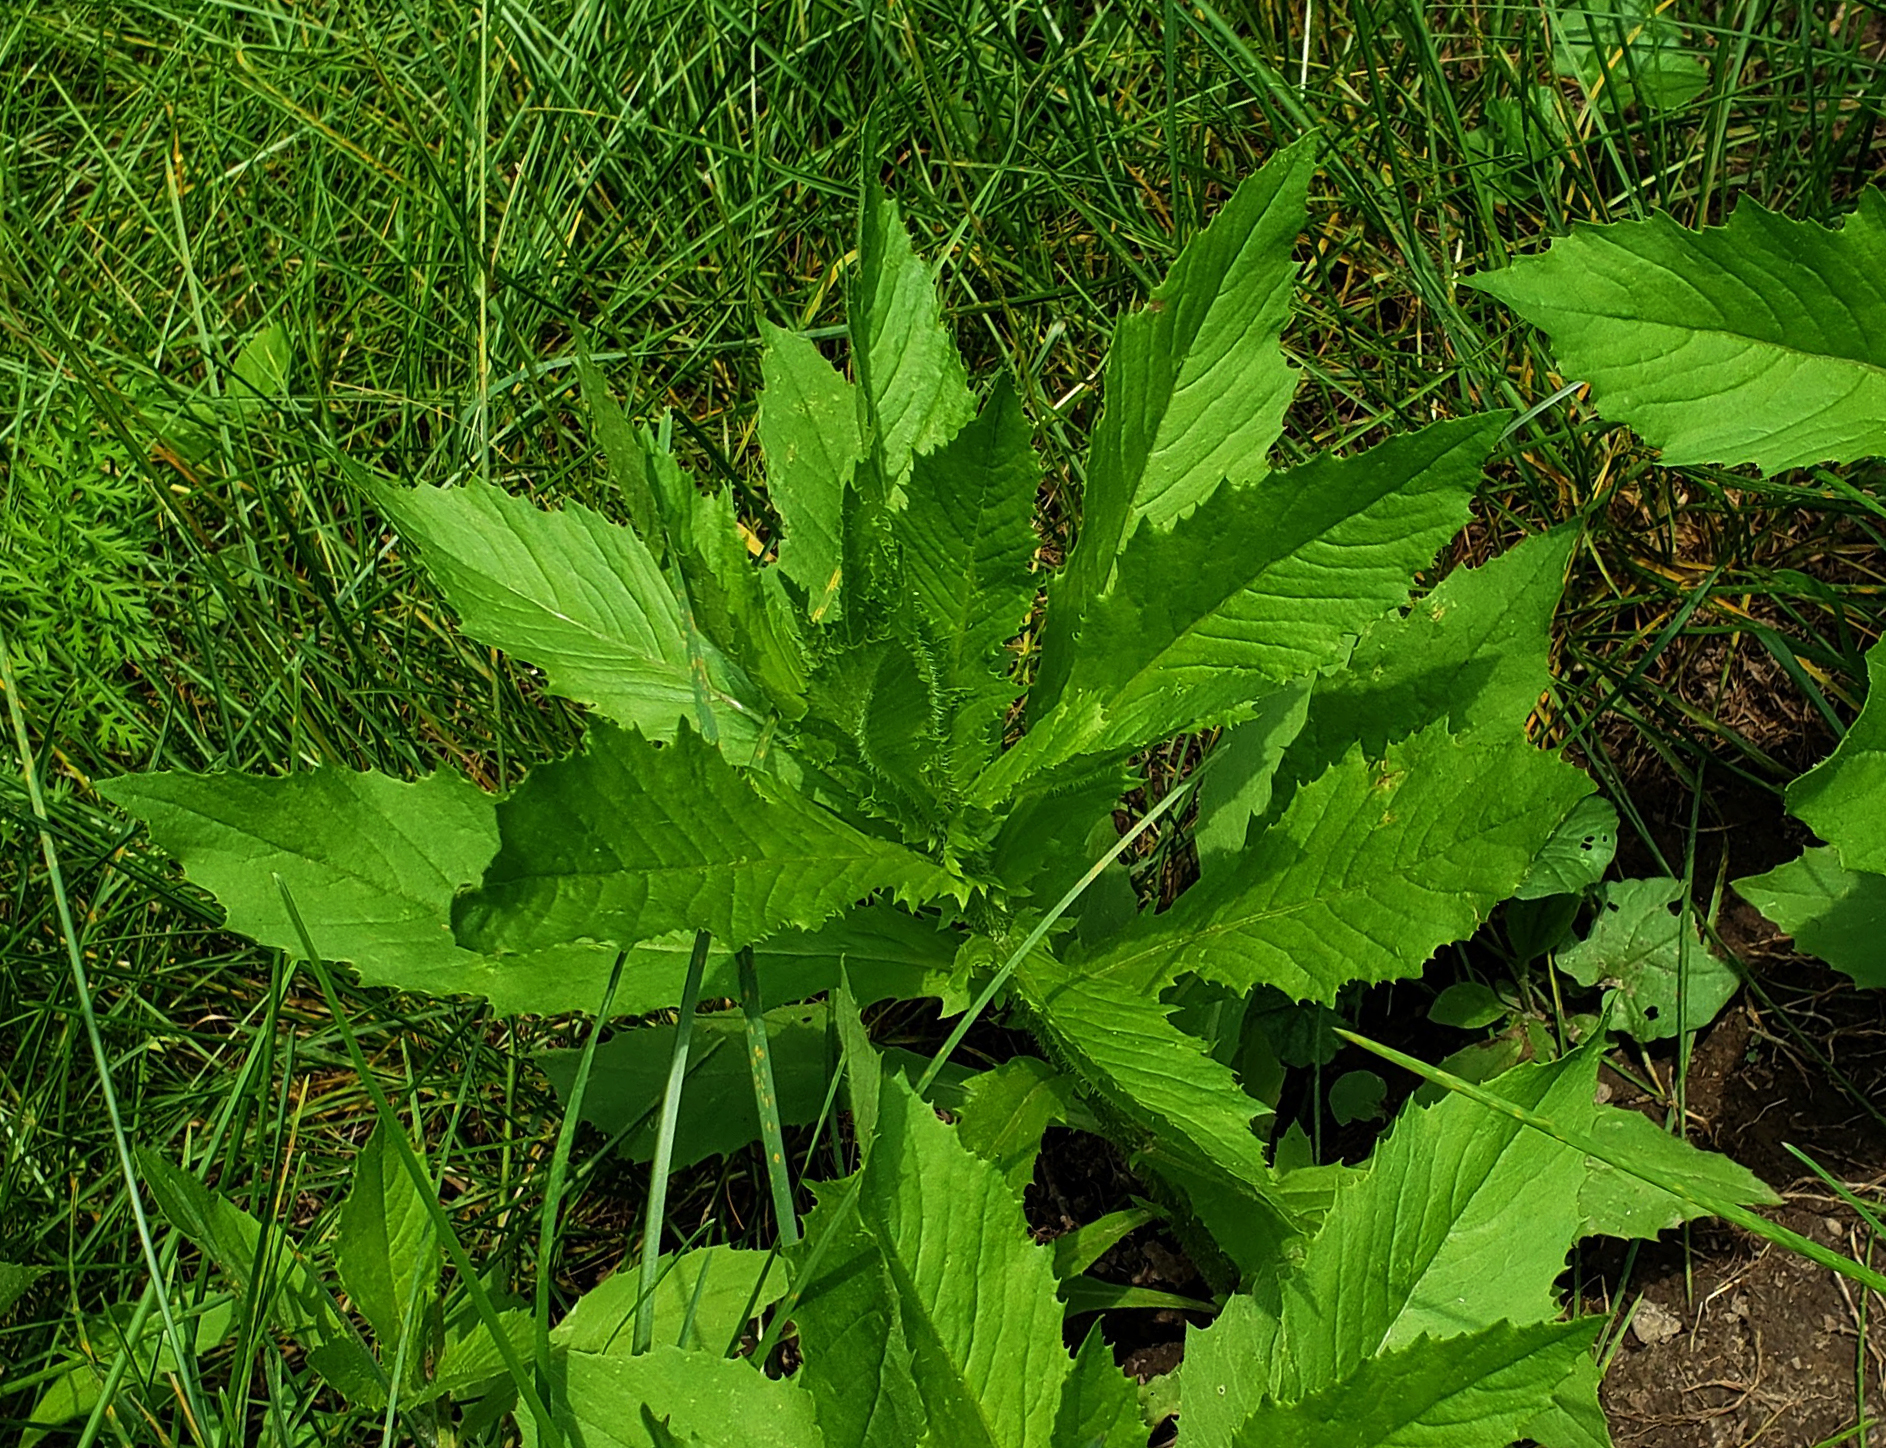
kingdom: Plantae
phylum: Tracheophyta
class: Magnoliopsida
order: Asterales
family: Asteraceae
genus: Erechtites
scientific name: Erechtites hieraciifolius
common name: American burnweed
